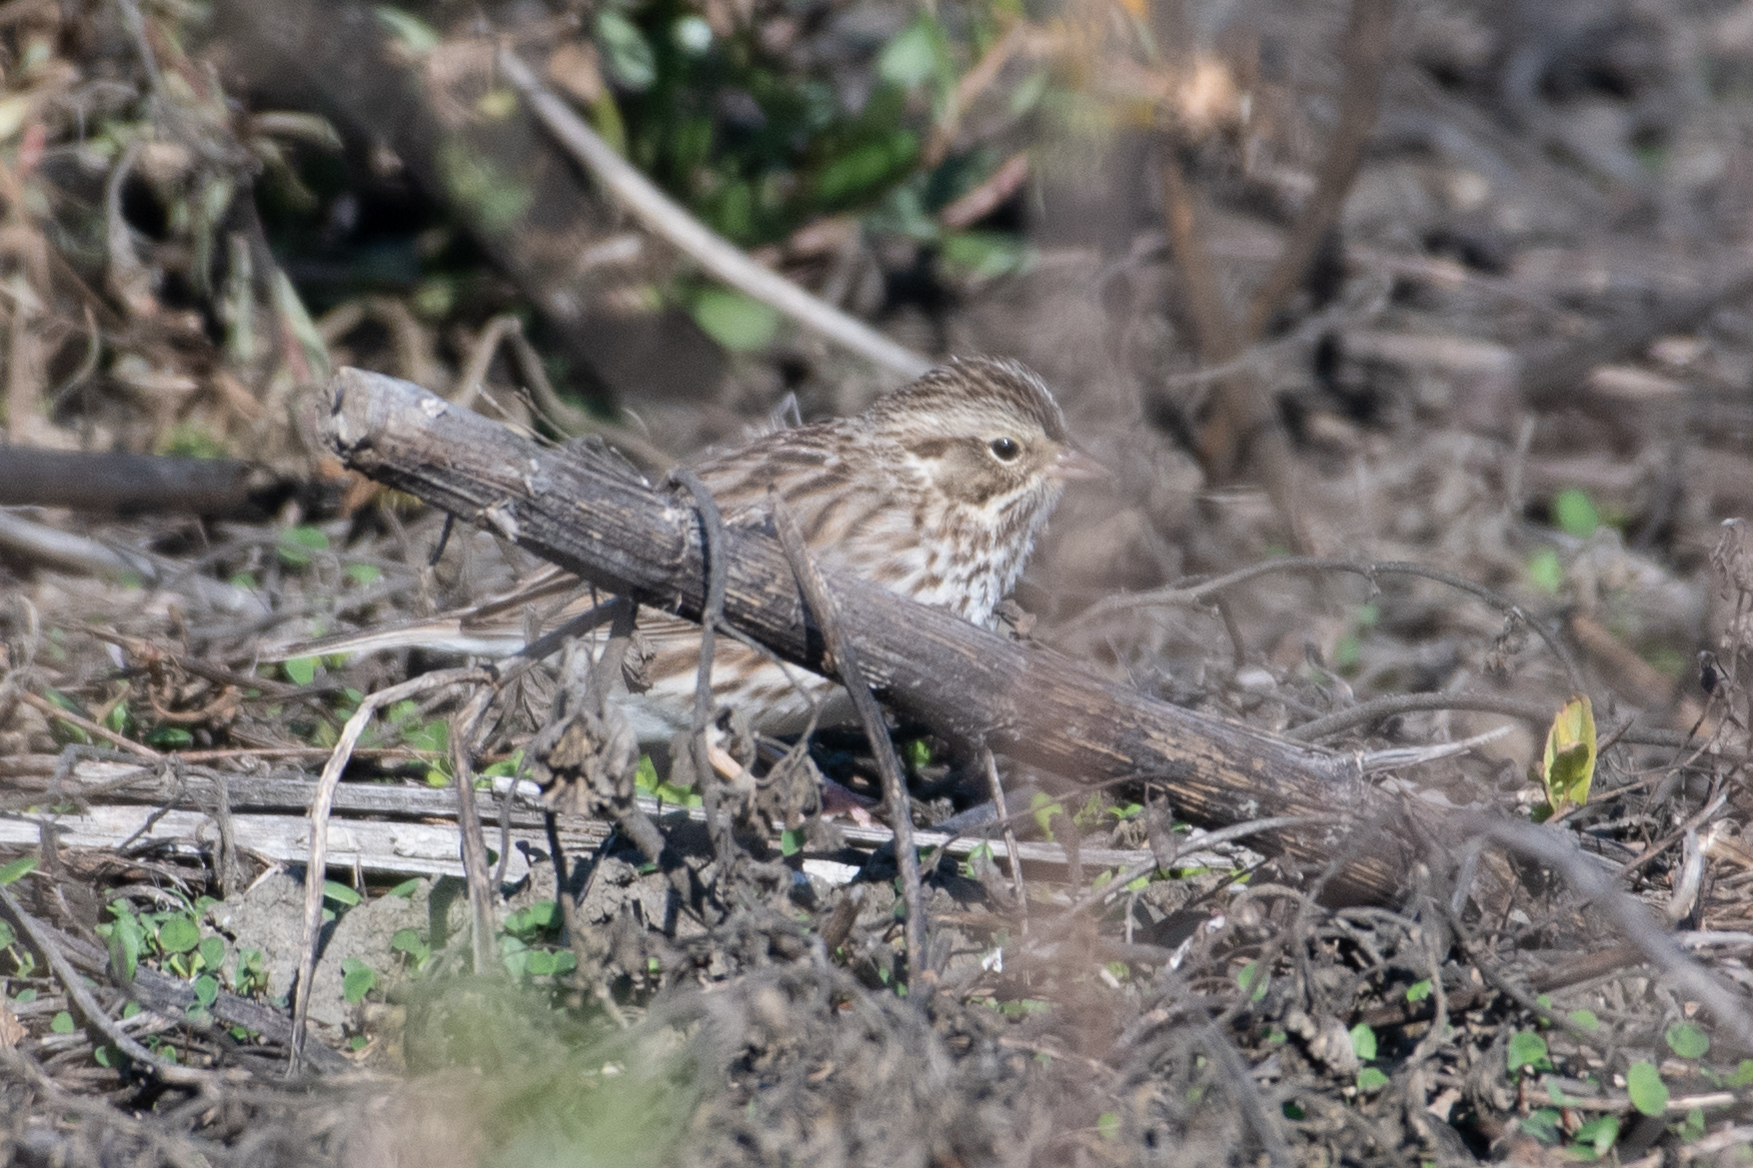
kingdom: Animalia
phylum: Chordata
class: Aves
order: Passeriformes
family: Passerellidae
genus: Passerculus
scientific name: Passerculus sandwichensis
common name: Savannah sparrow
